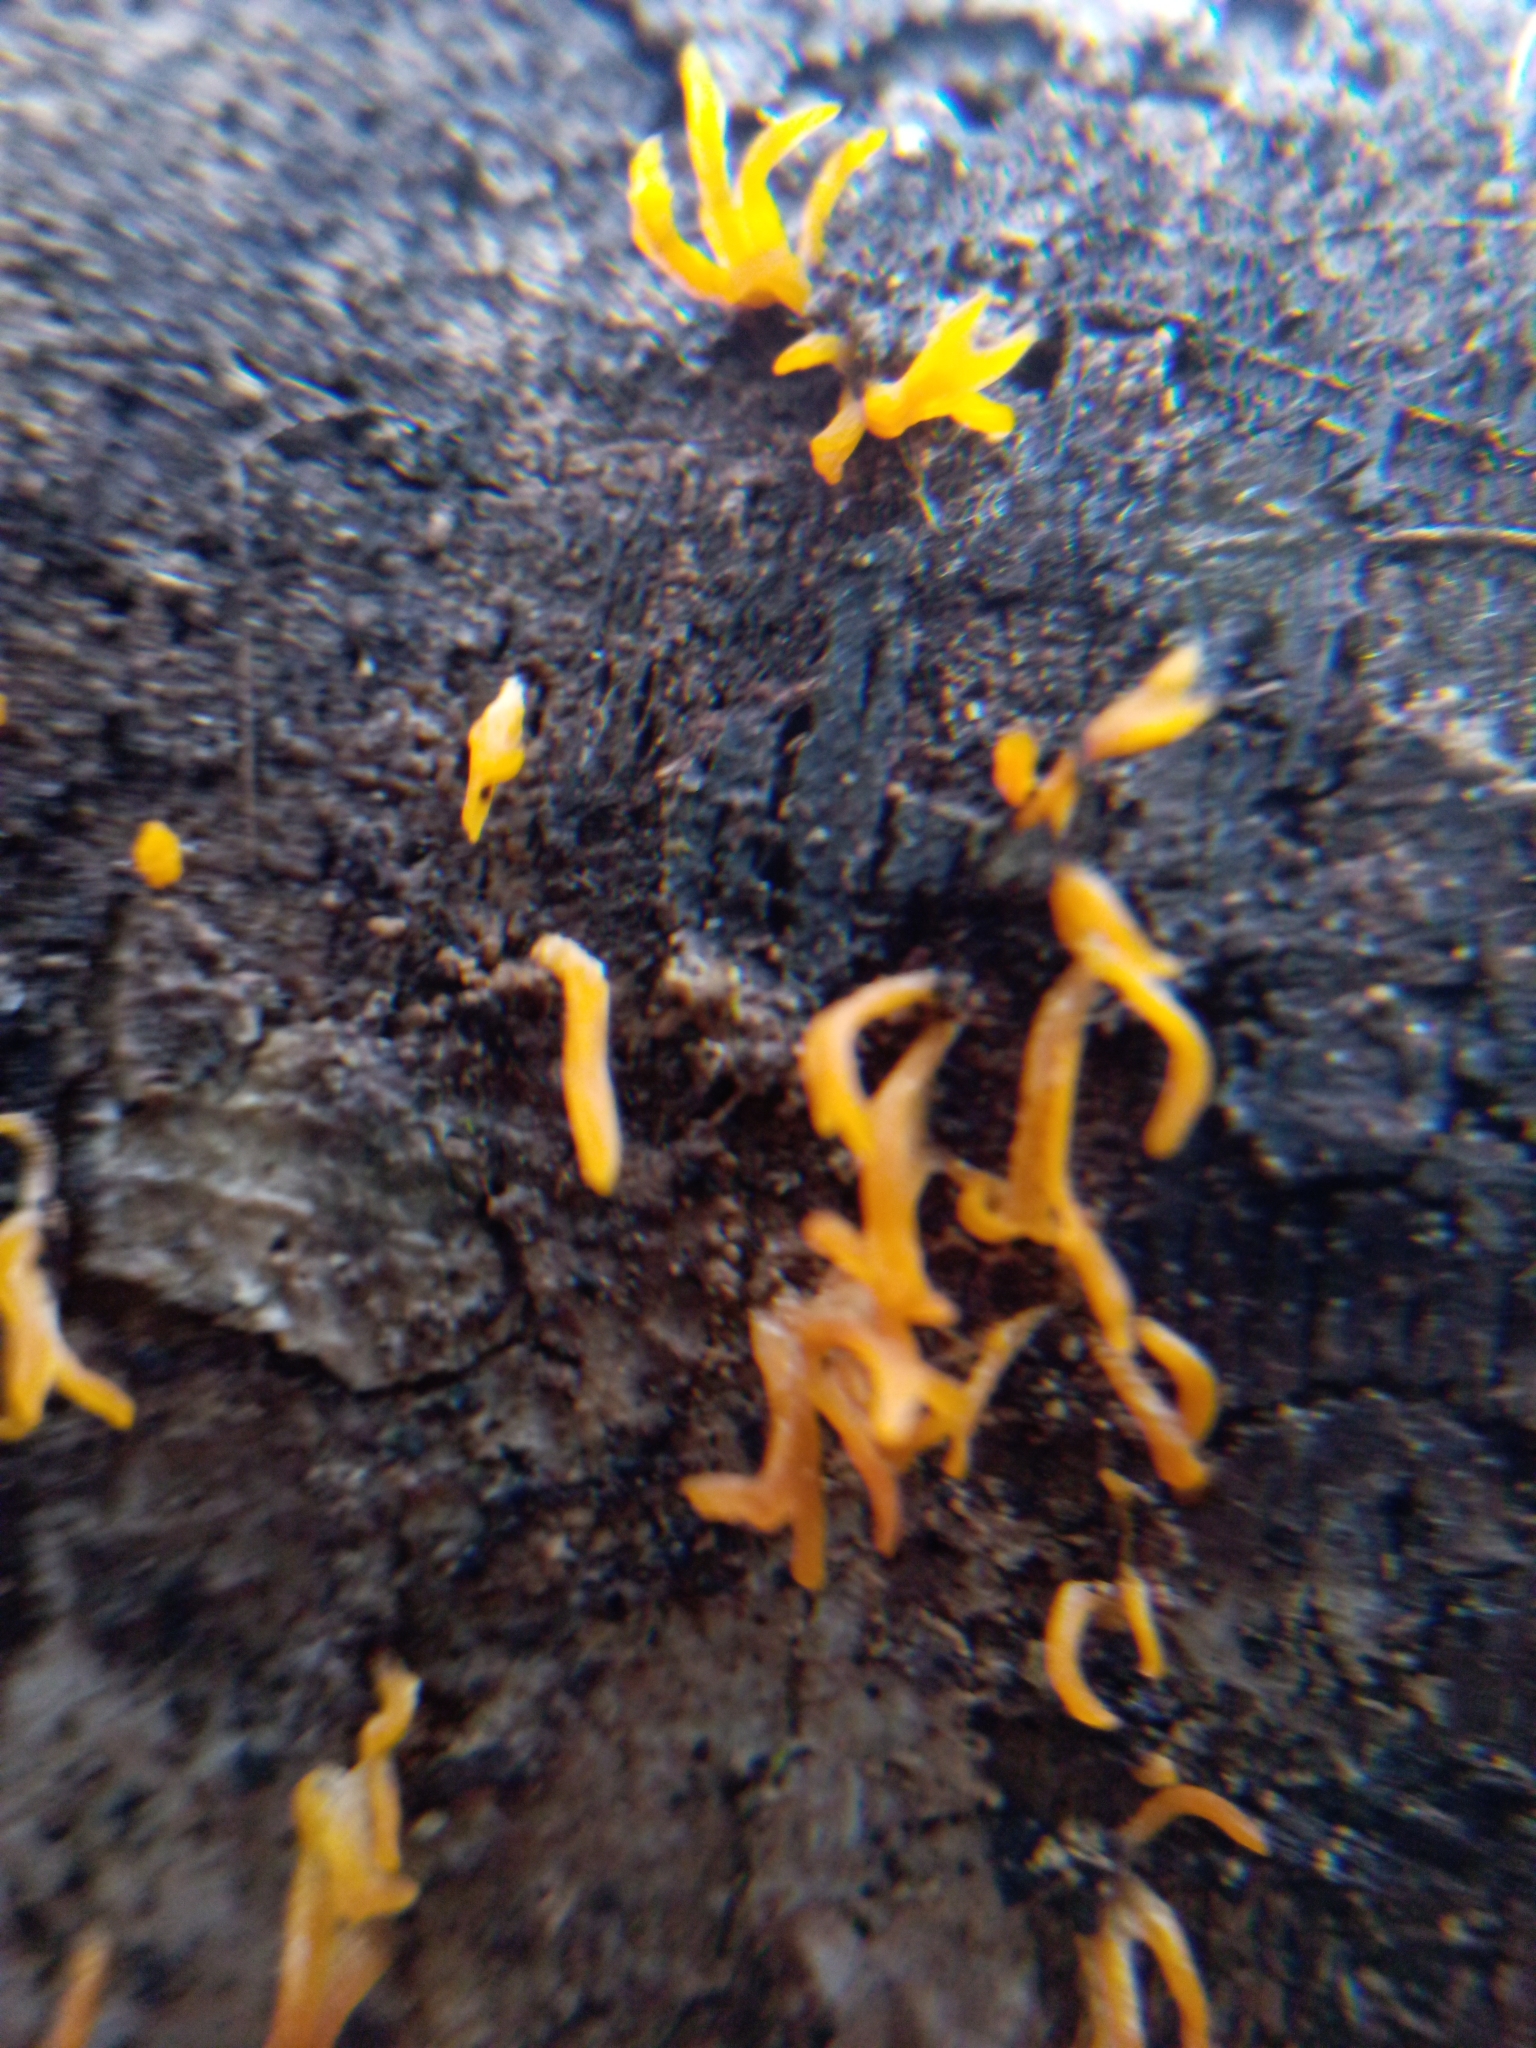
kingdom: Fungi
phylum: Basidiomycota
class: Dacrymycetes
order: Dacrymycetales
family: Dacrymycetaceae
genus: Calocera
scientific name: Calocera cornea
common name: Small stagshorn
